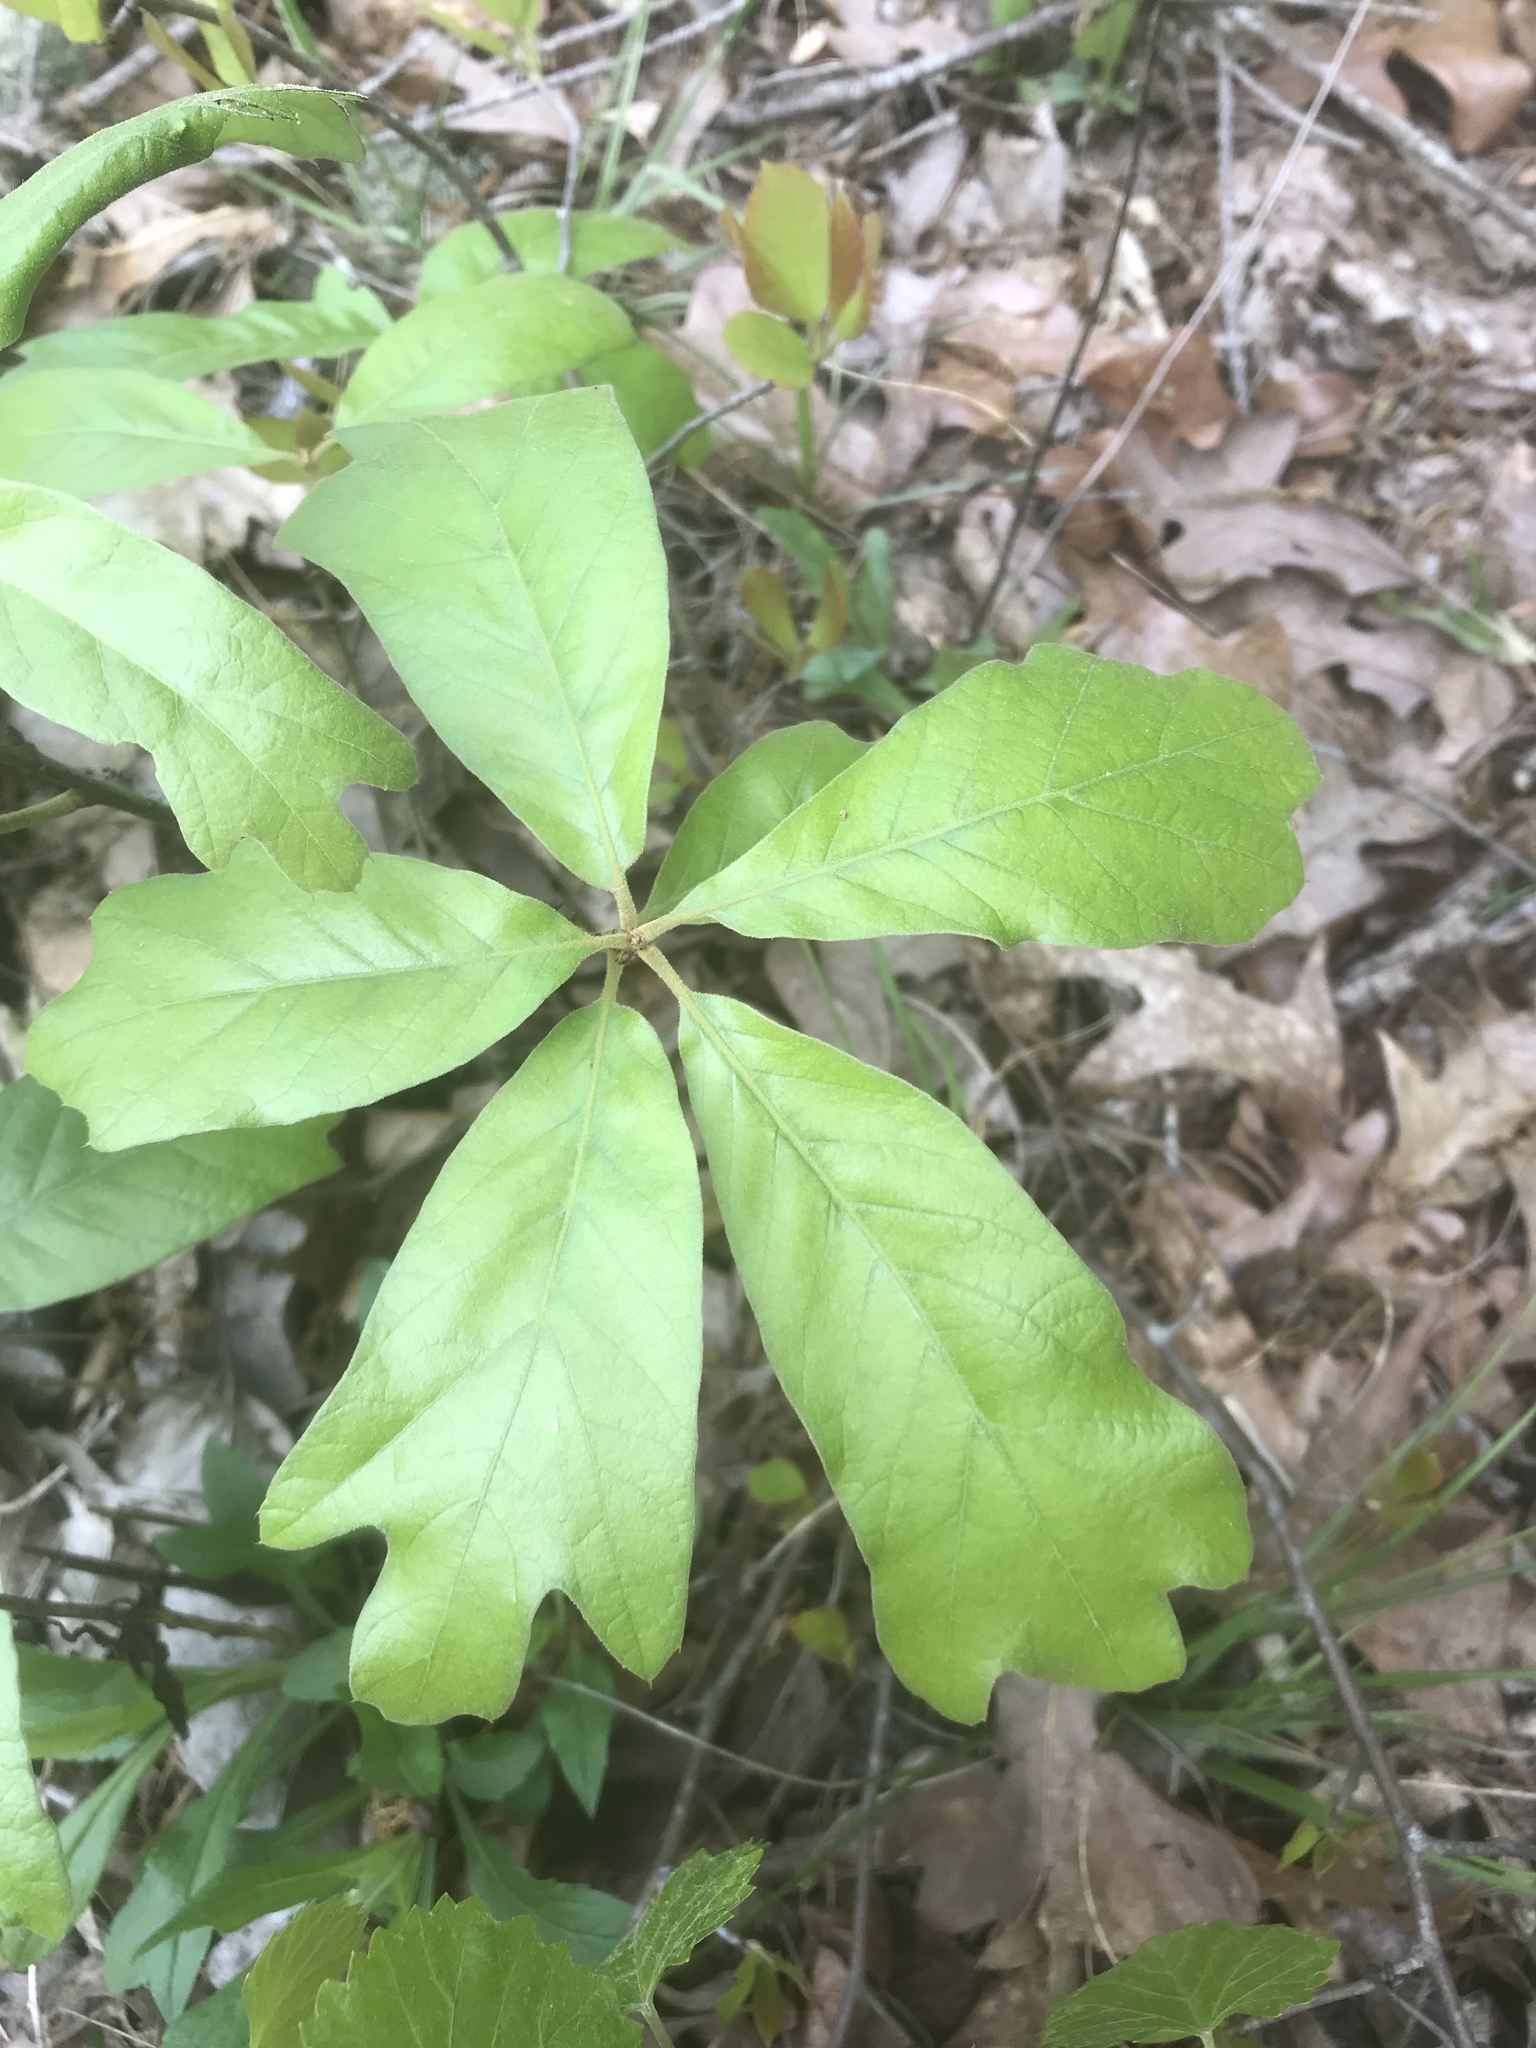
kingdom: Plantae
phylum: Tracheophyta
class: Magnoliopsida
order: Fagales
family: Fagaceae
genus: Quercus
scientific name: Quercus falcata
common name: Southern red oak
